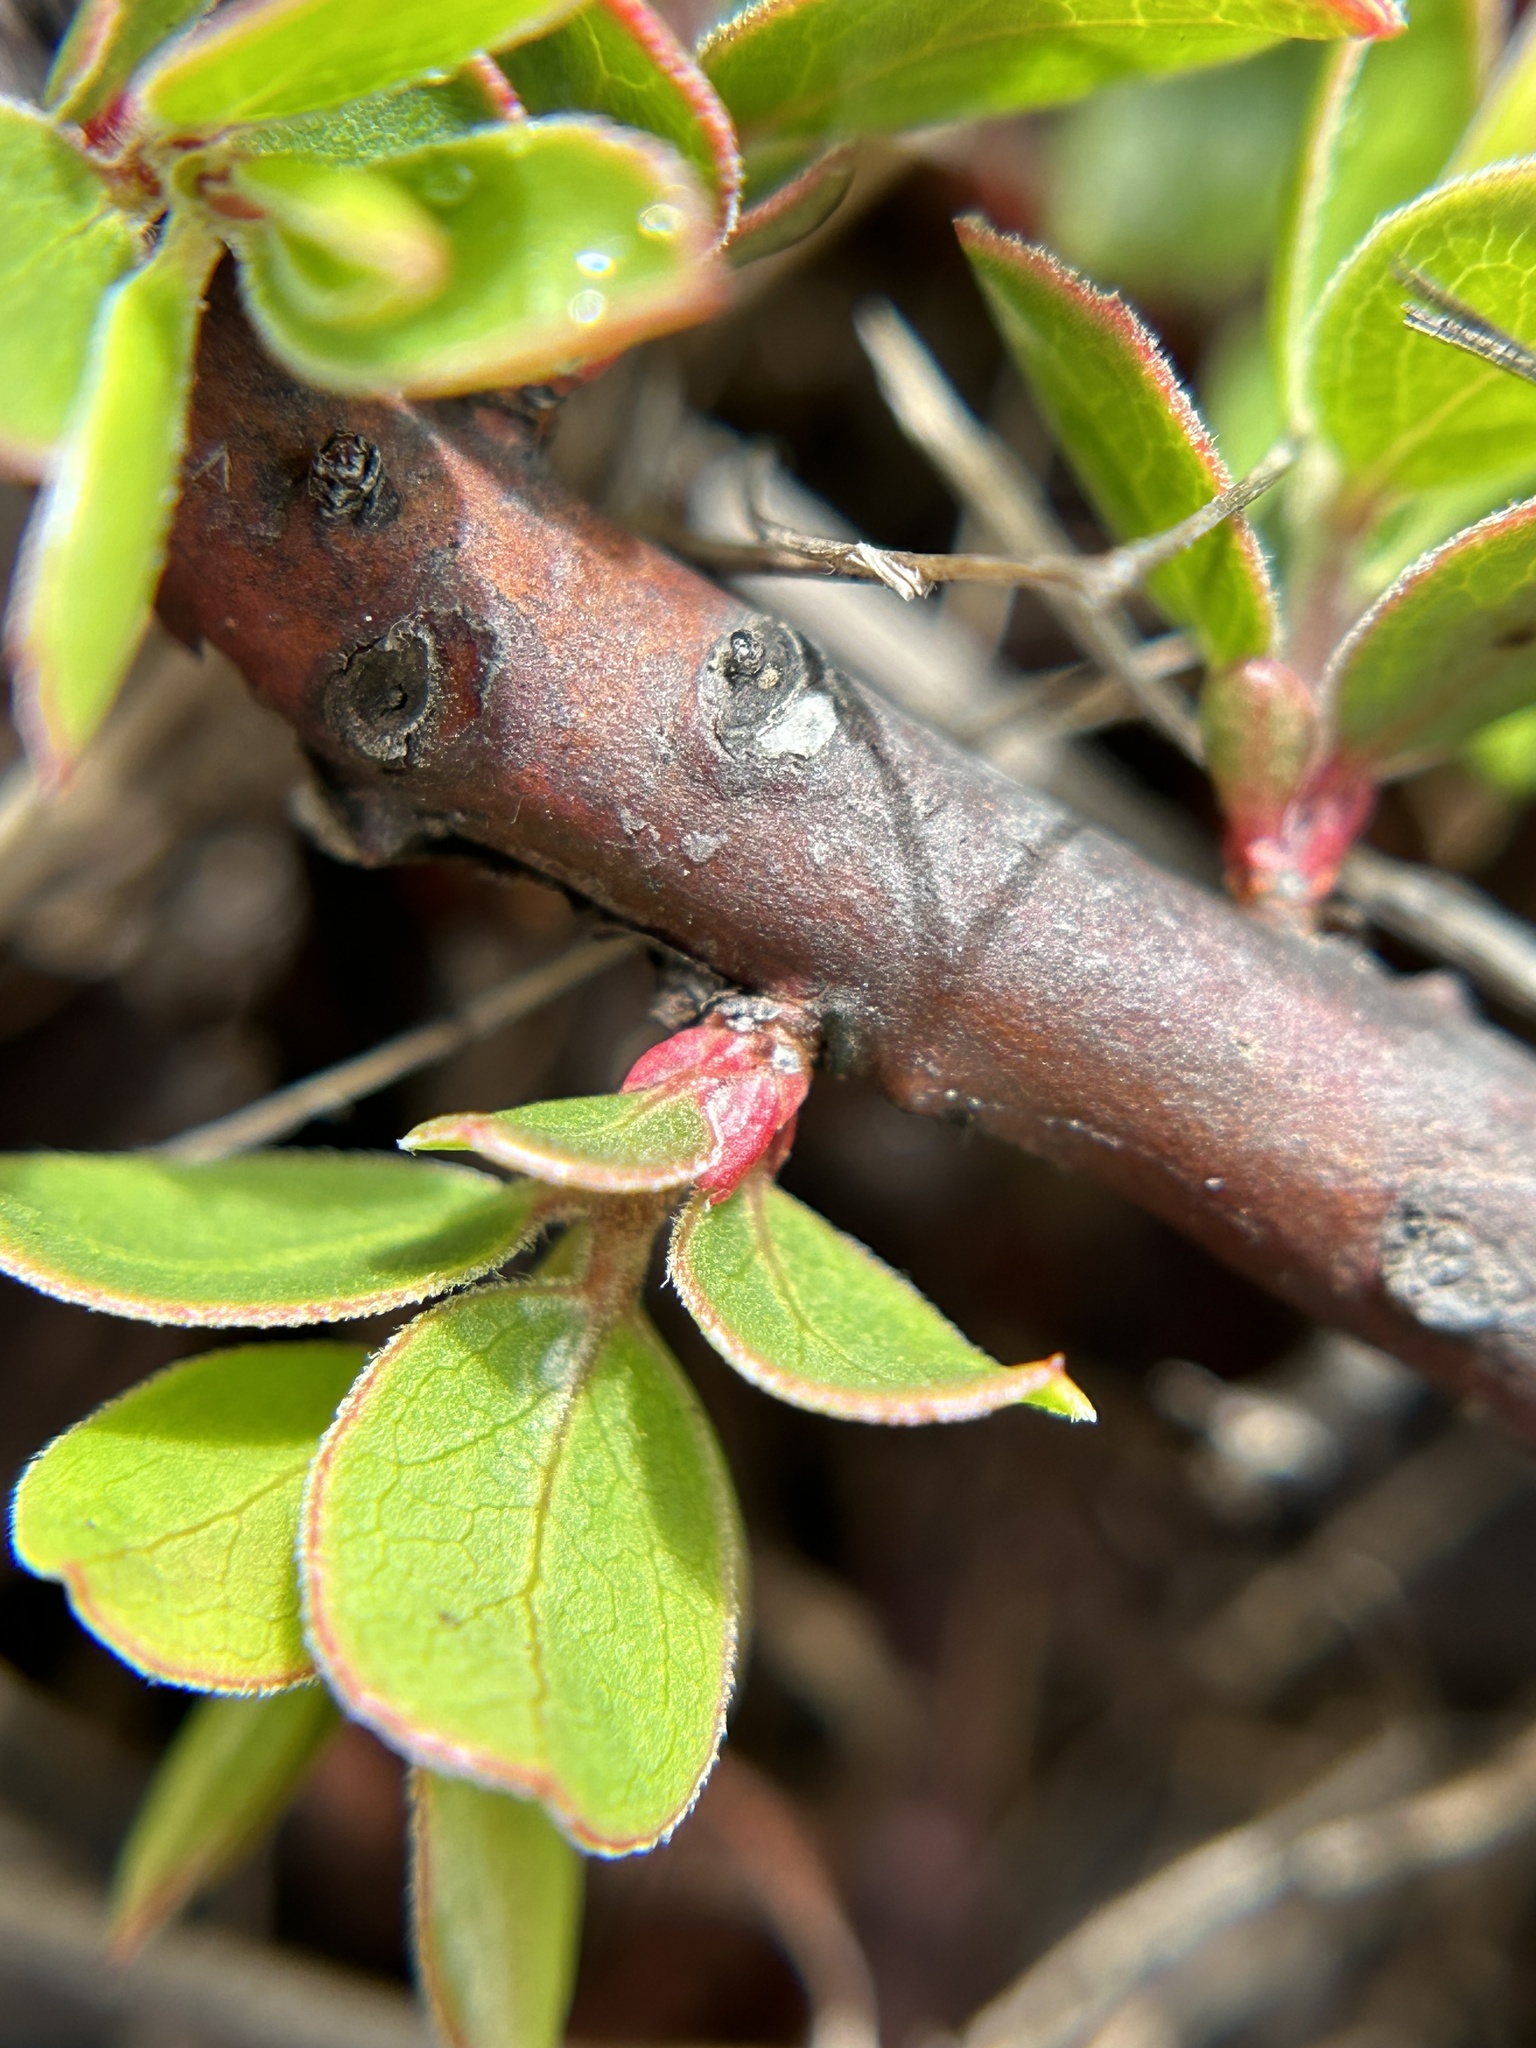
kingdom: Plantae
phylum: Tracheophyta
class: Magnoliopsida
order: Ericales
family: Ericaceae
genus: Arctostaphylos
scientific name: Arctostaphylos hookeri
